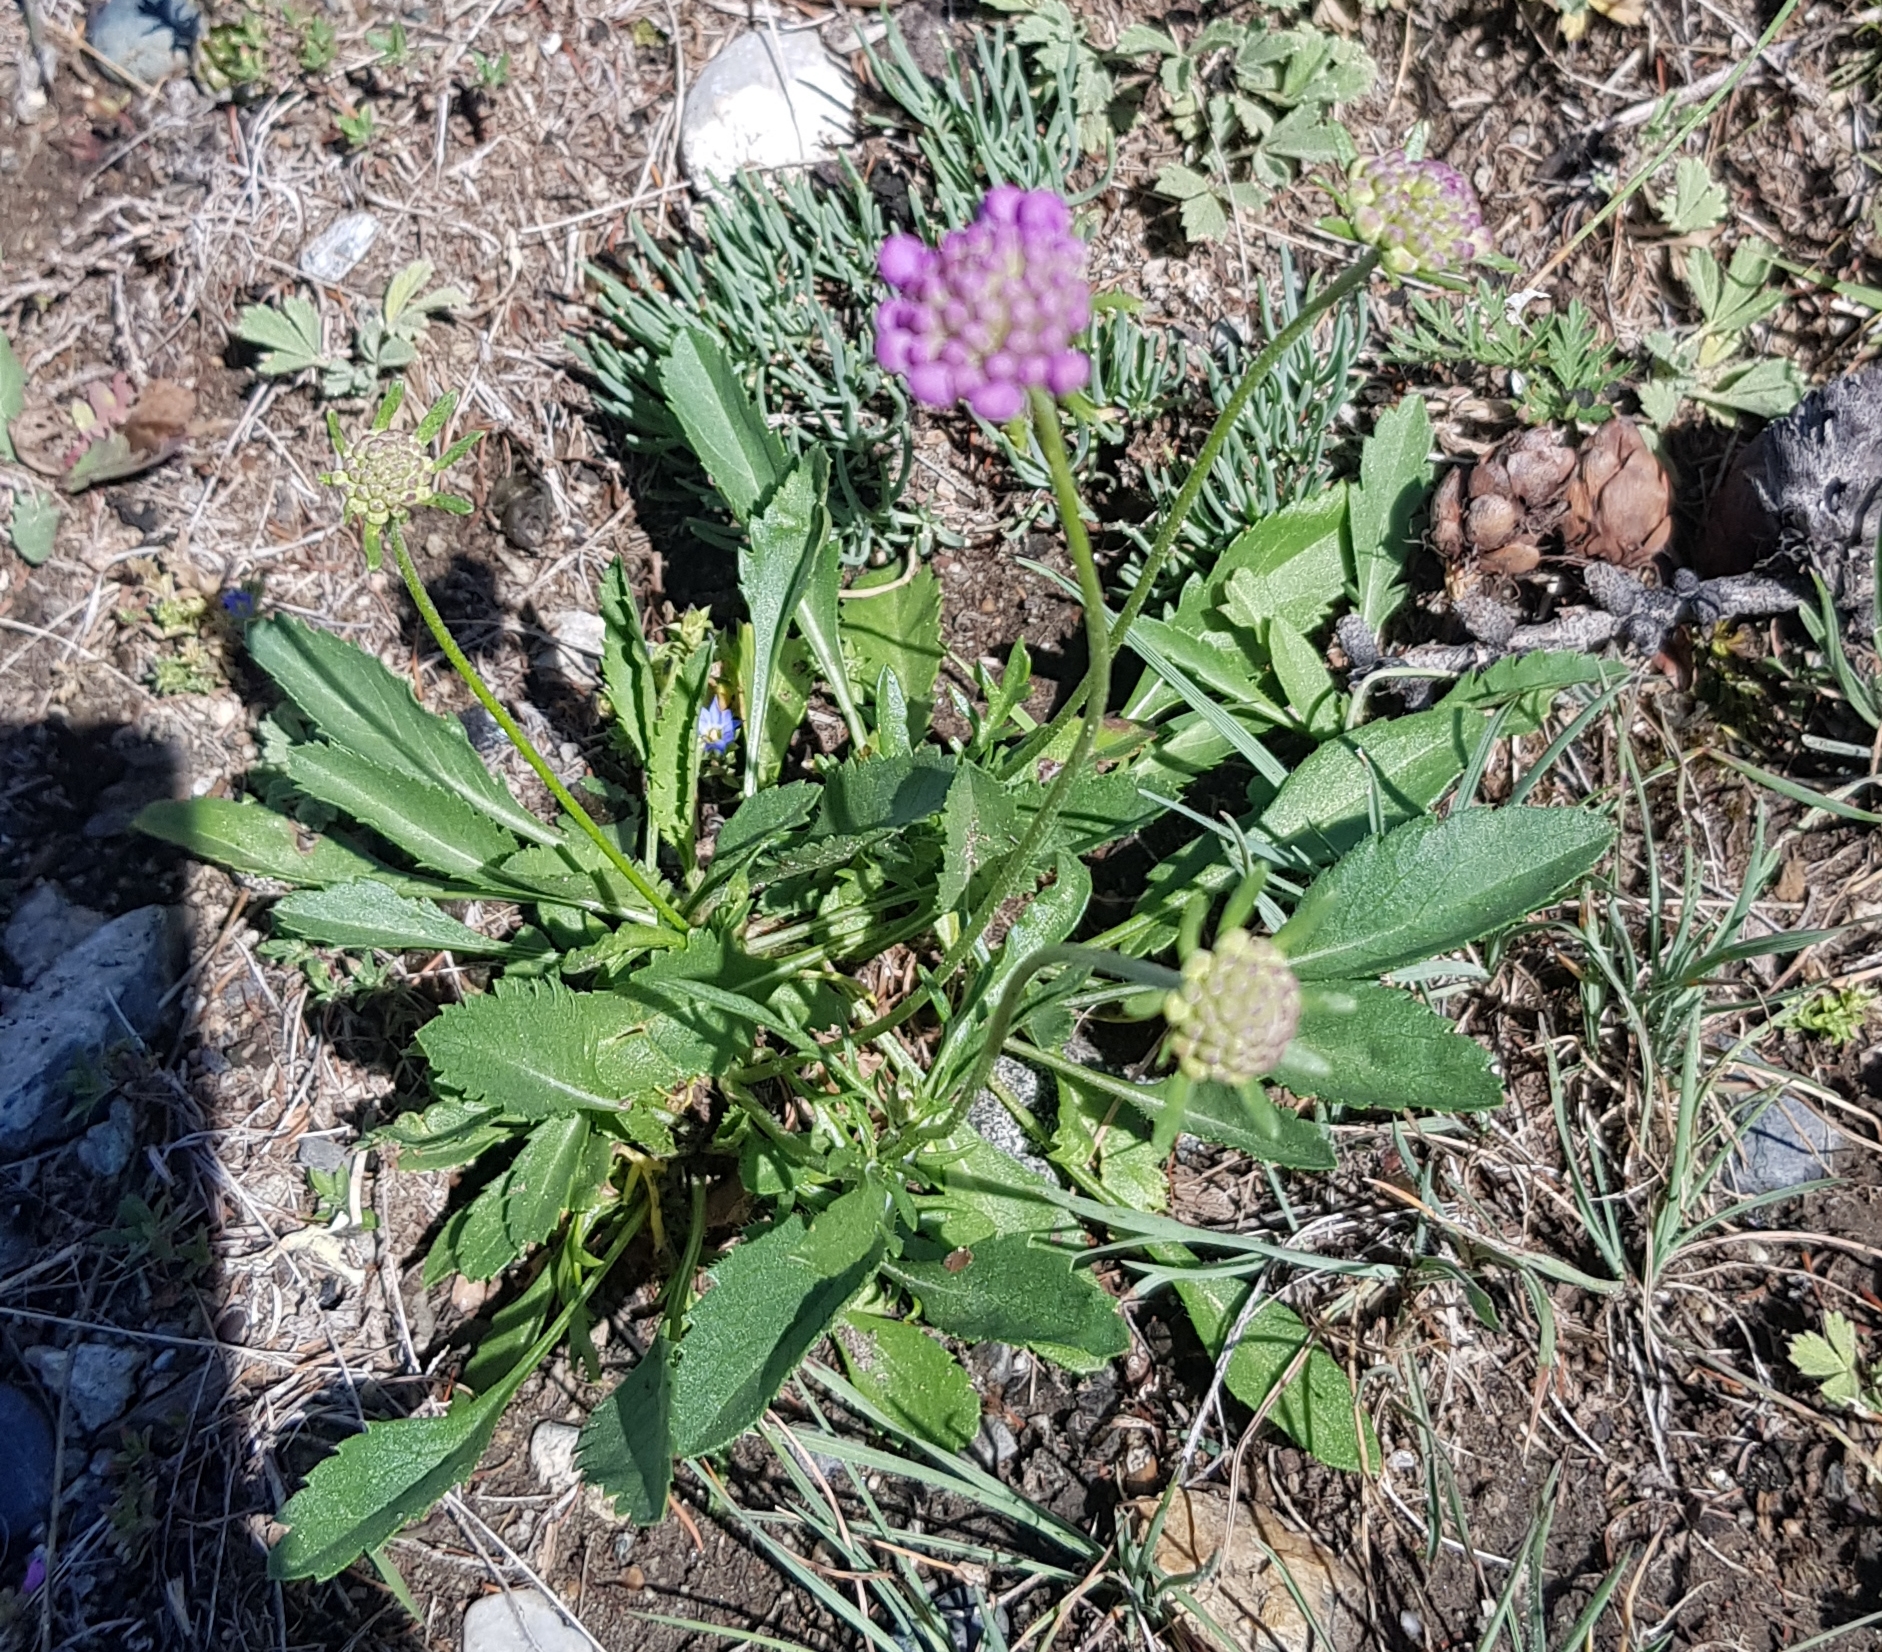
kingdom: Plantae
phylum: Tracheophyta
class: Magnoliopsida
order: Dipsacales
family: Caprifoliaceae
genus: Scabiosa
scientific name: Scabiosa comosa
